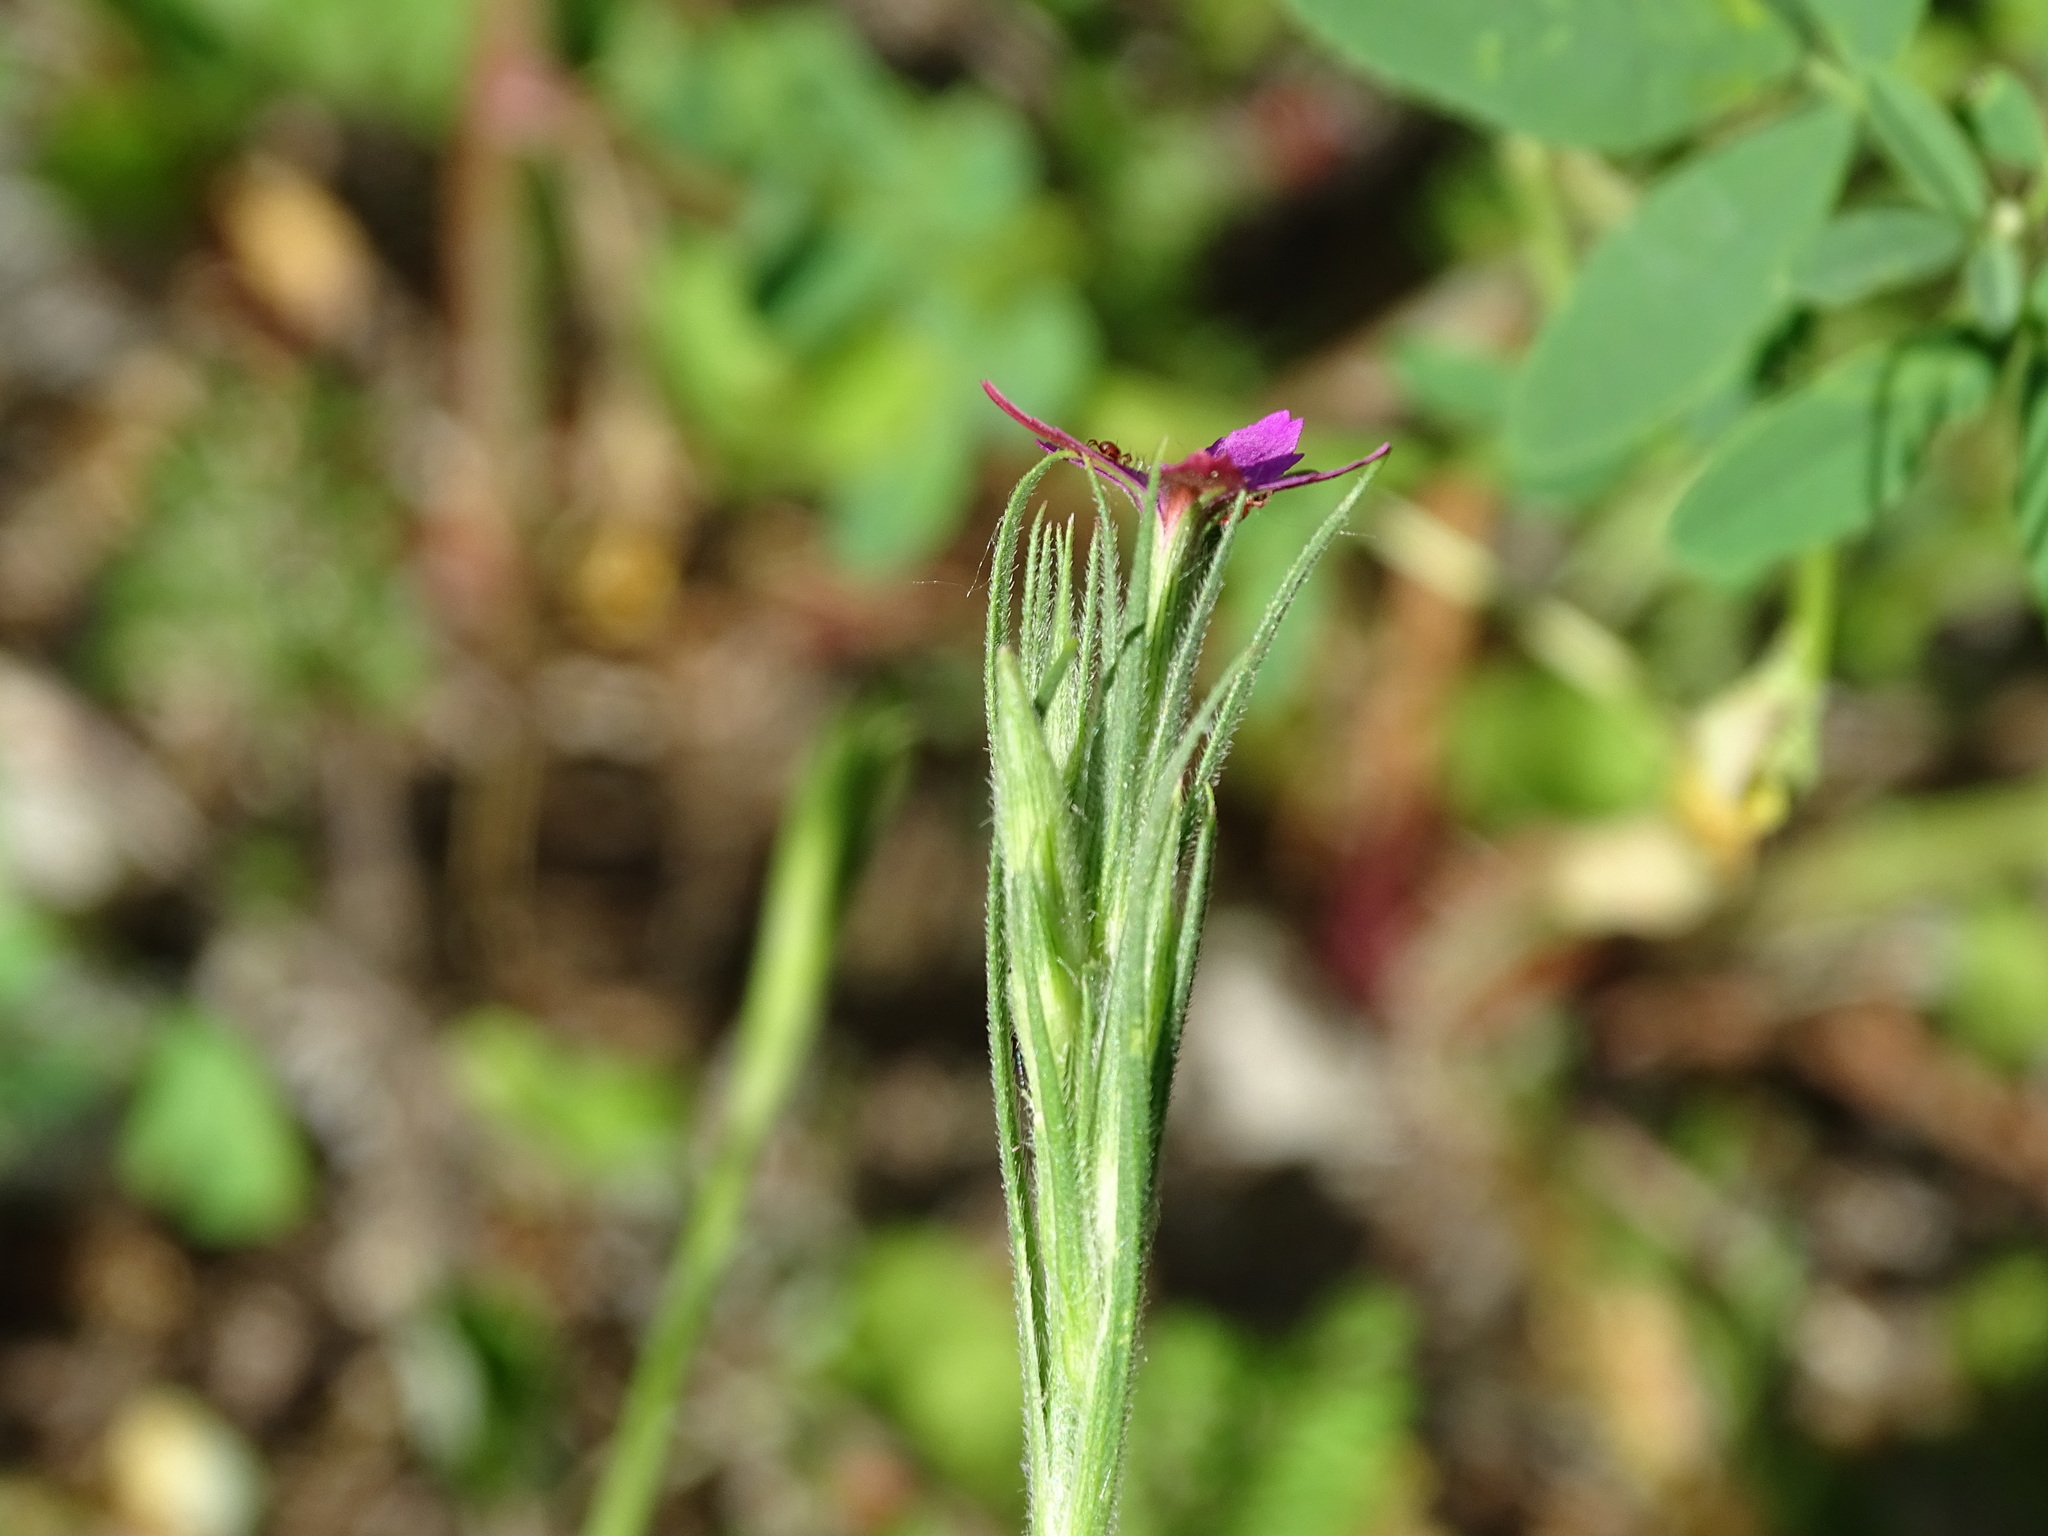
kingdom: Plantae
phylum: Tracheophyta
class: Magnoliopsida
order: Caryophyllales
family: Caryophyllaceae
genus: Dianthus
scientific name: Dianthus armeria
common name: Deptford pink
